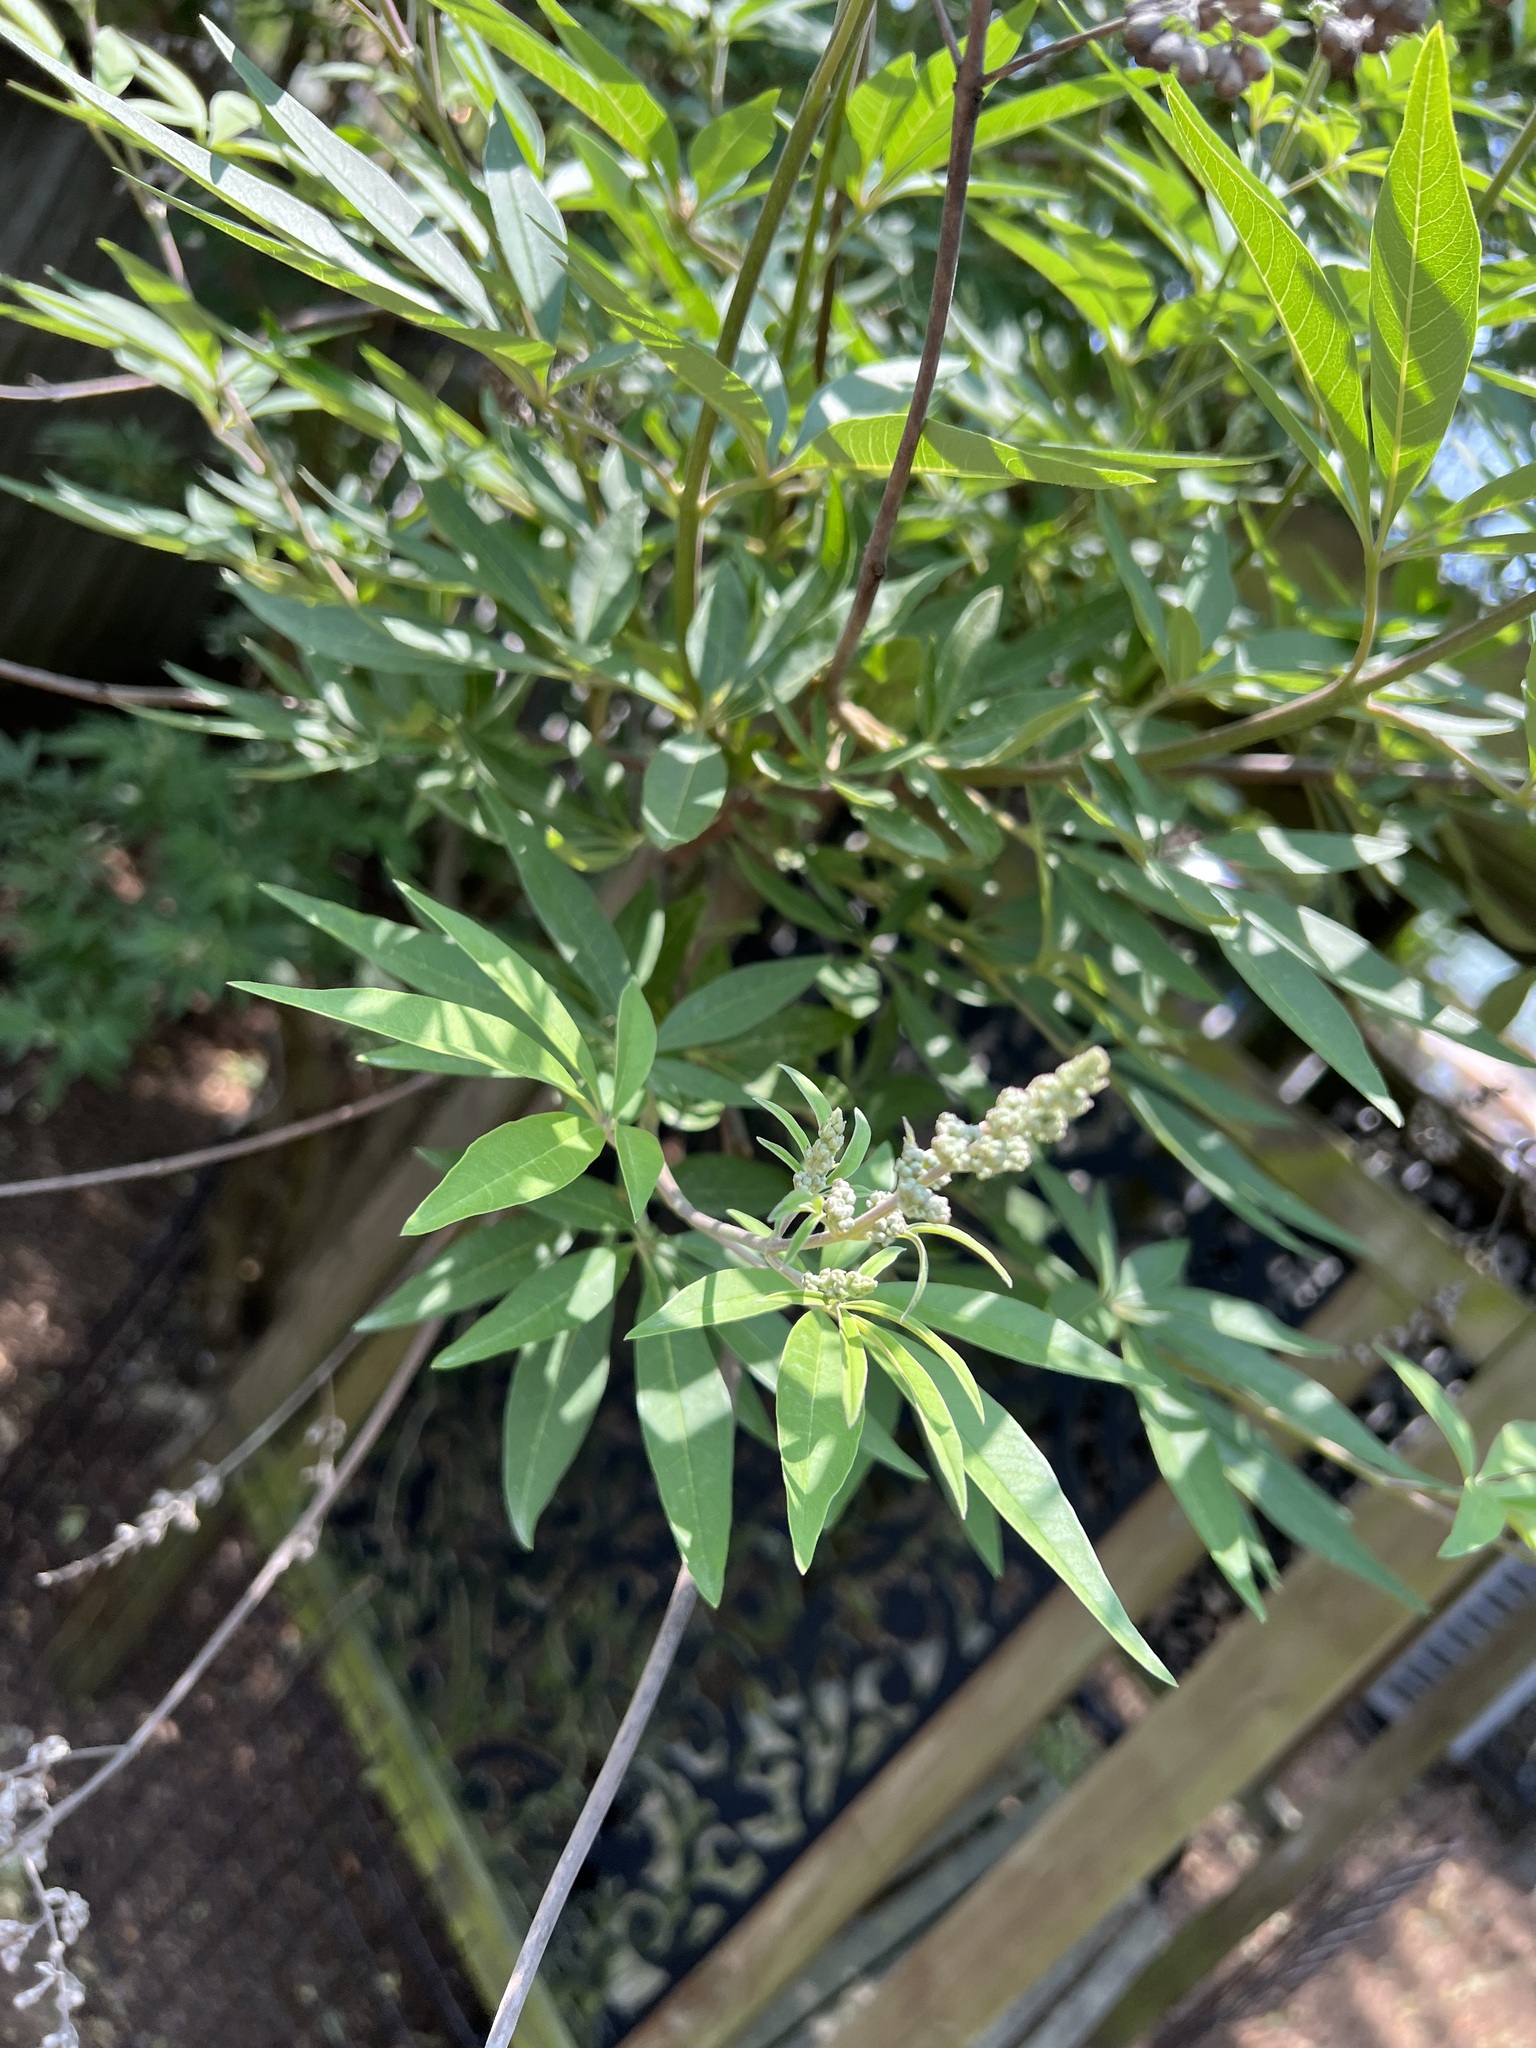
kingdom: Plantae
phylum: Tracheophyta
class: Magnoliopsida
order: Lamiales
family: Lamiaceae
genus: Vitex
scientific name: Vitex agnus-castus
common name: Chasteberry
